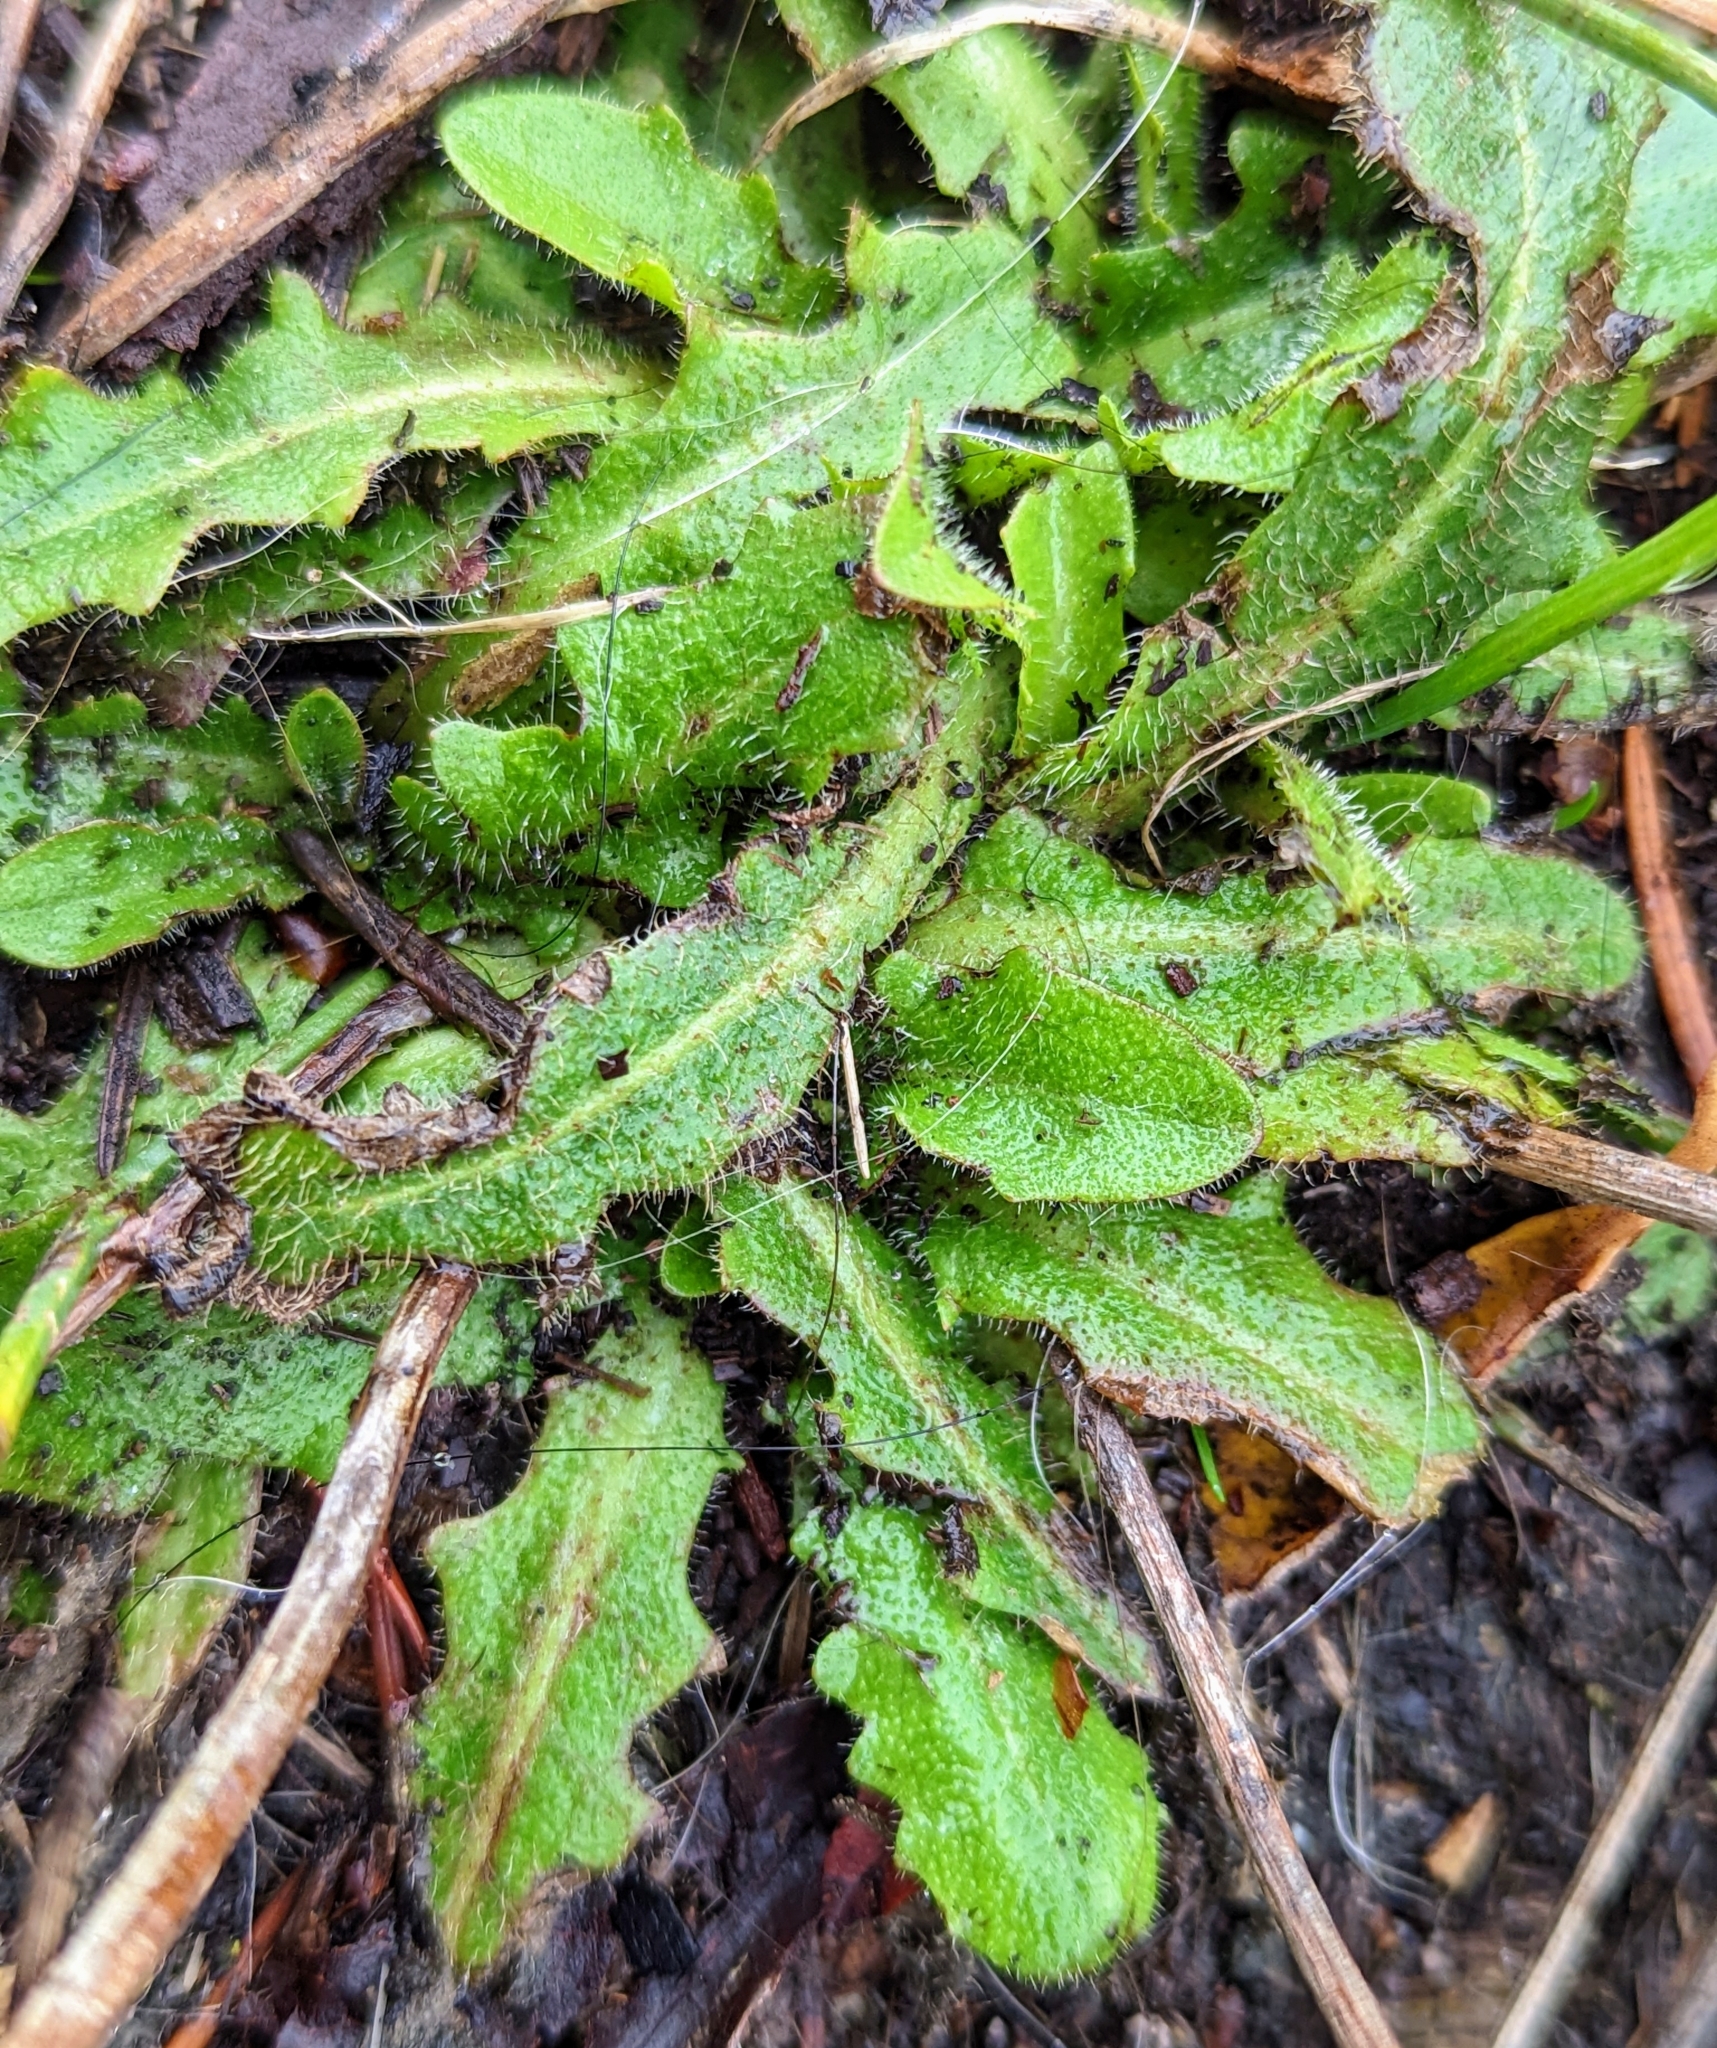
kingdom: Plantae
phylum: Tracheophyta
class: Magnoliopsida
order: Asterales
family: Asteraceae
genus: Hypochaeris
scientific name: Hypochaeris radicata
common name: Flatweed
